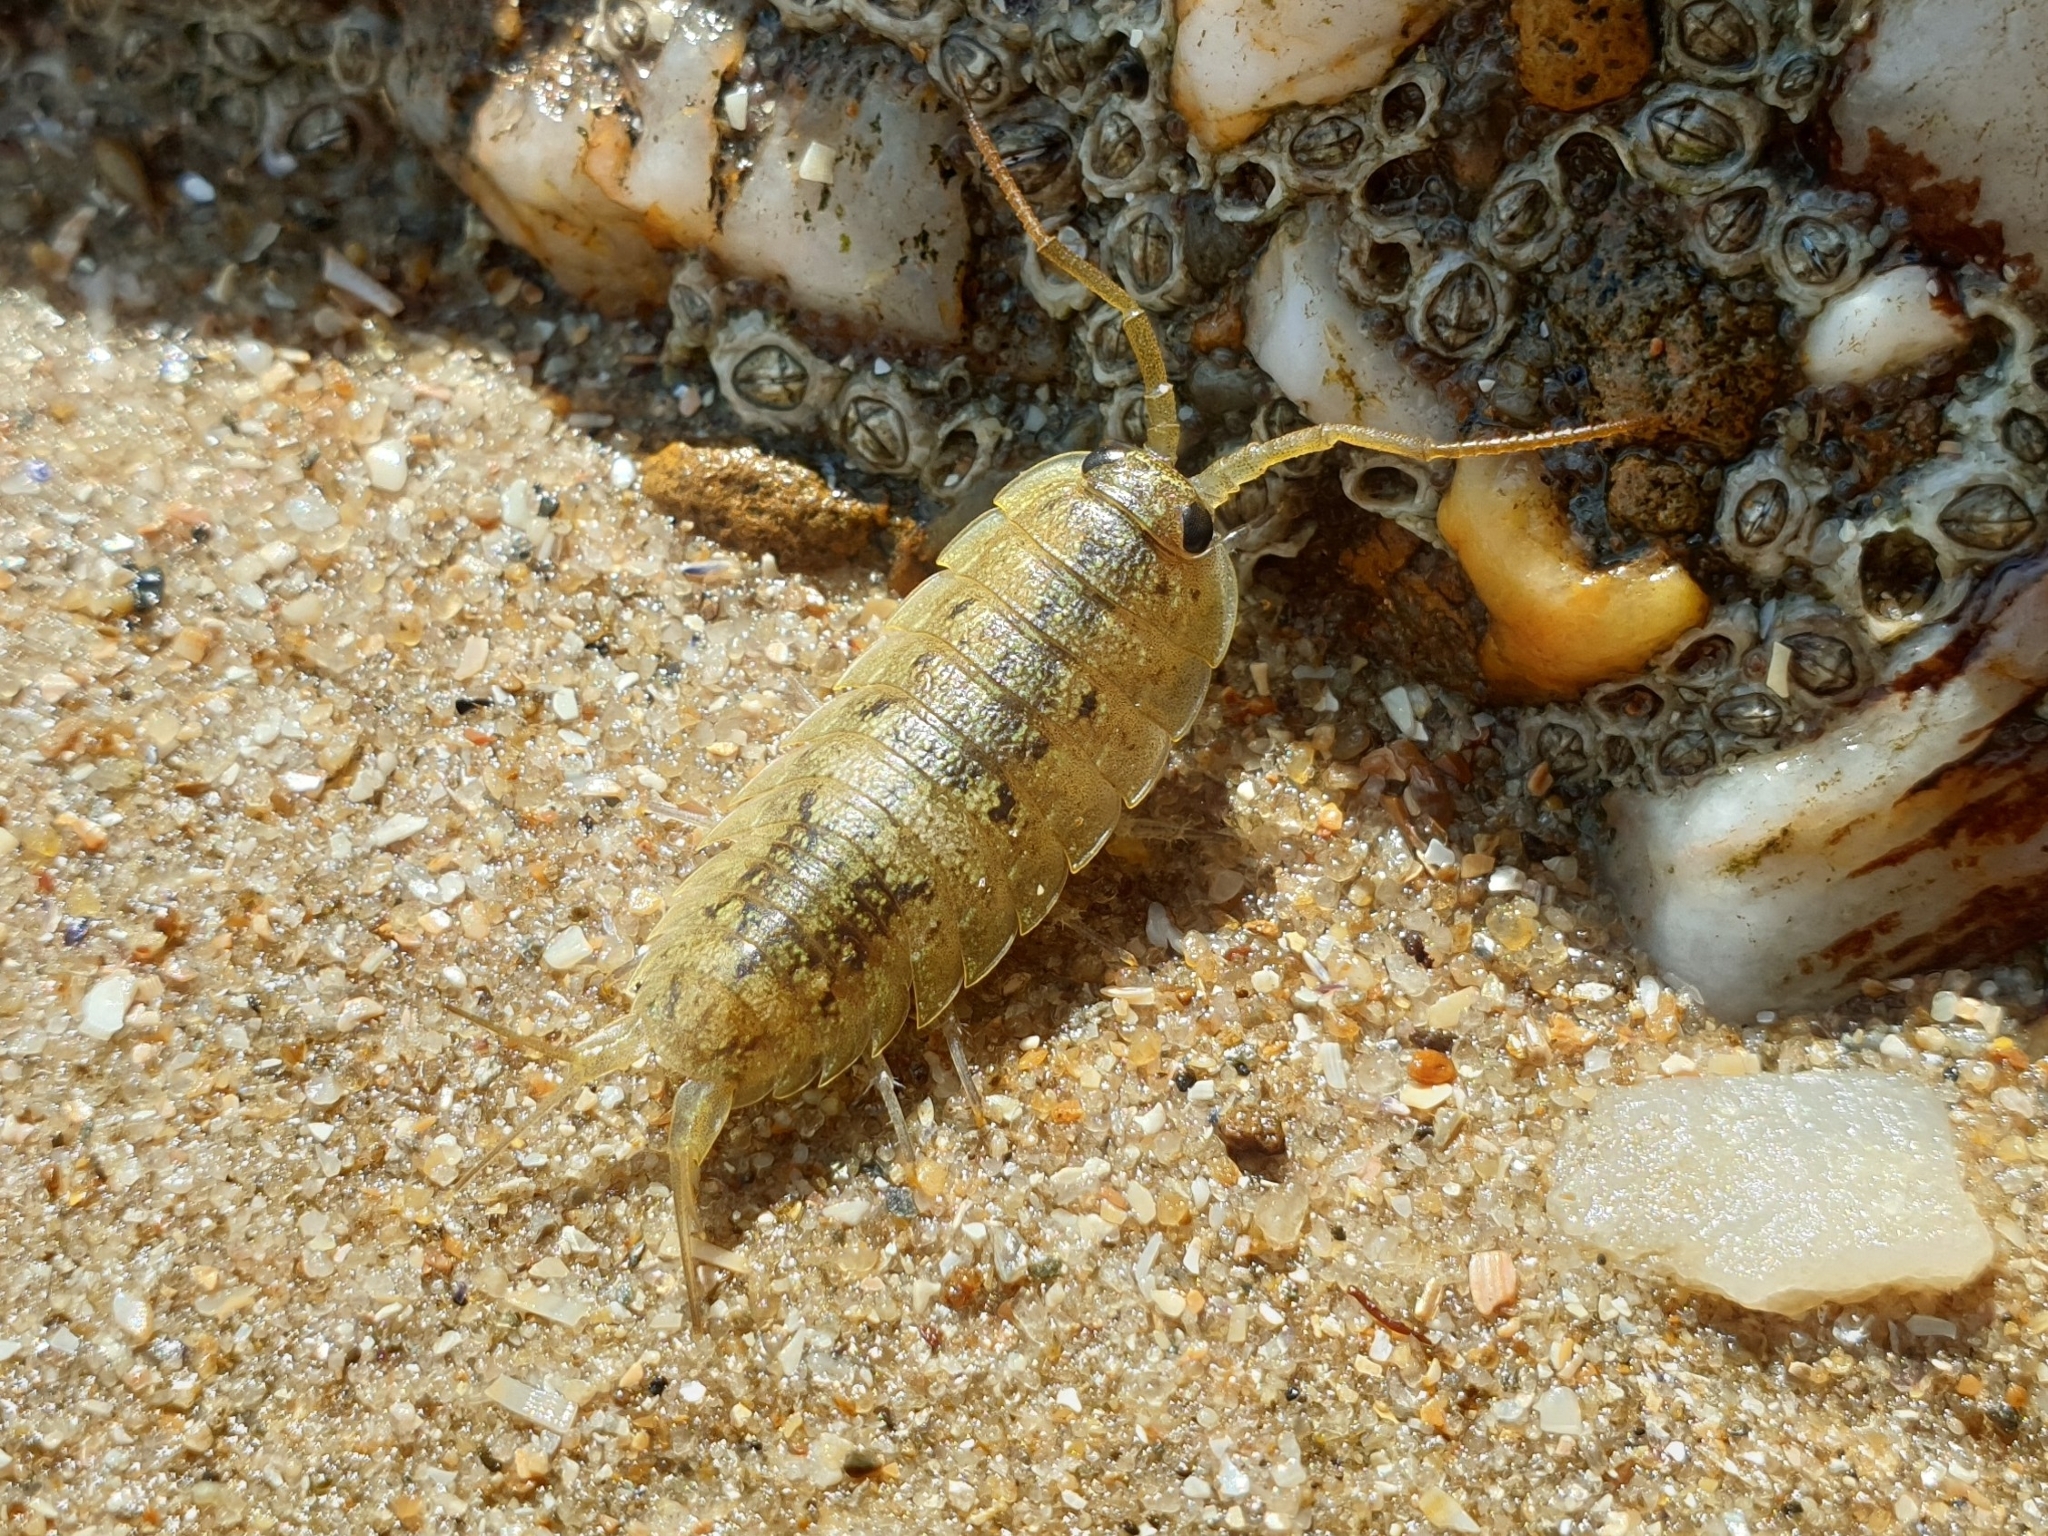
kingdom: Animalia
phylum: Arthropoda
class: Malacostraca
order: Isopoda
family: Ligiidae
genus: Ligia
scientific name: Ligia oceanica
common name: Sea slater
